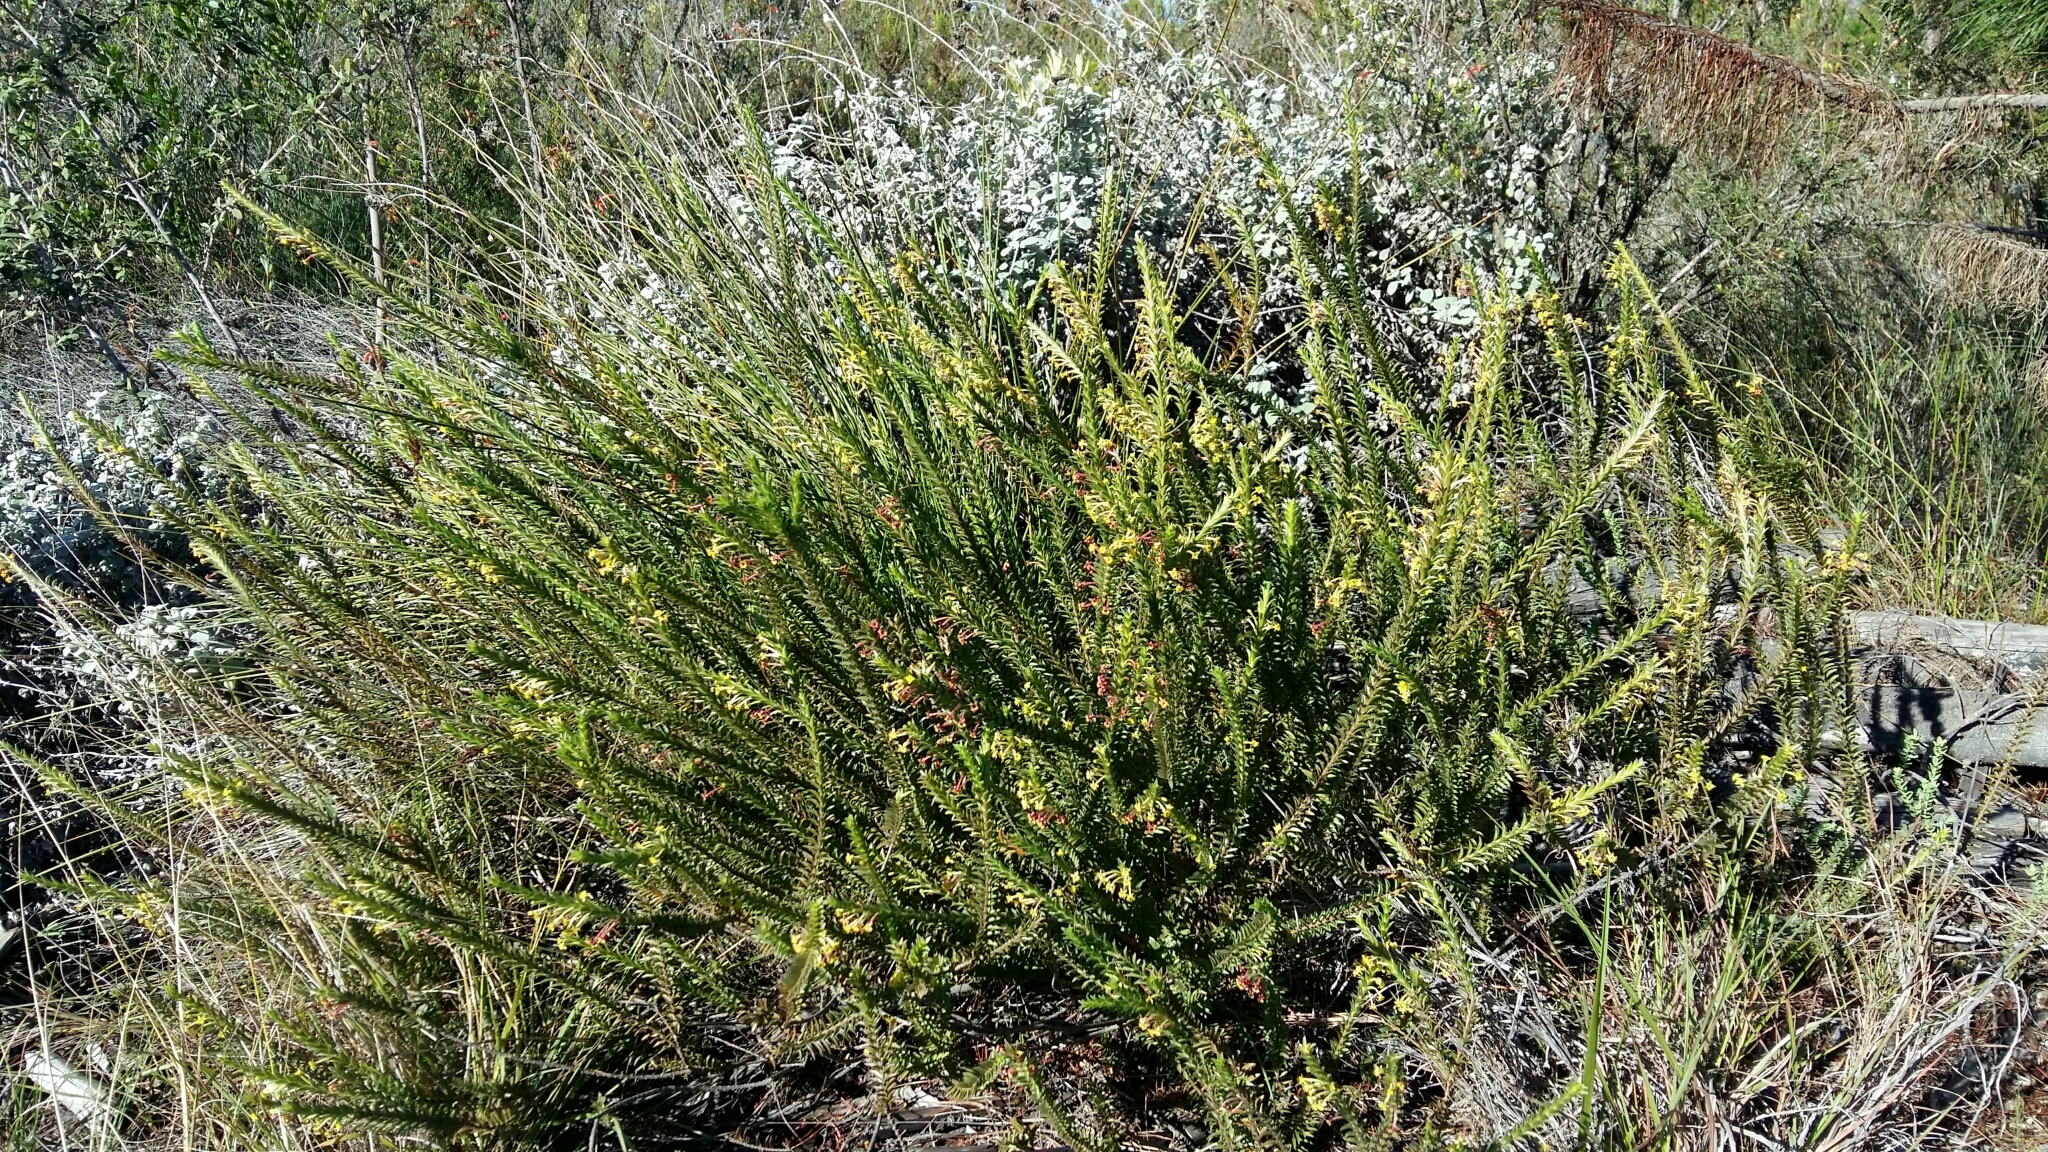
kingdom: Plantae
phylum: Tracheophyta
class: Magnoliopsida
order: Malvales
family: Thymelaeaceae
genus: Struthiola
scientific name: Struthiola argentea
